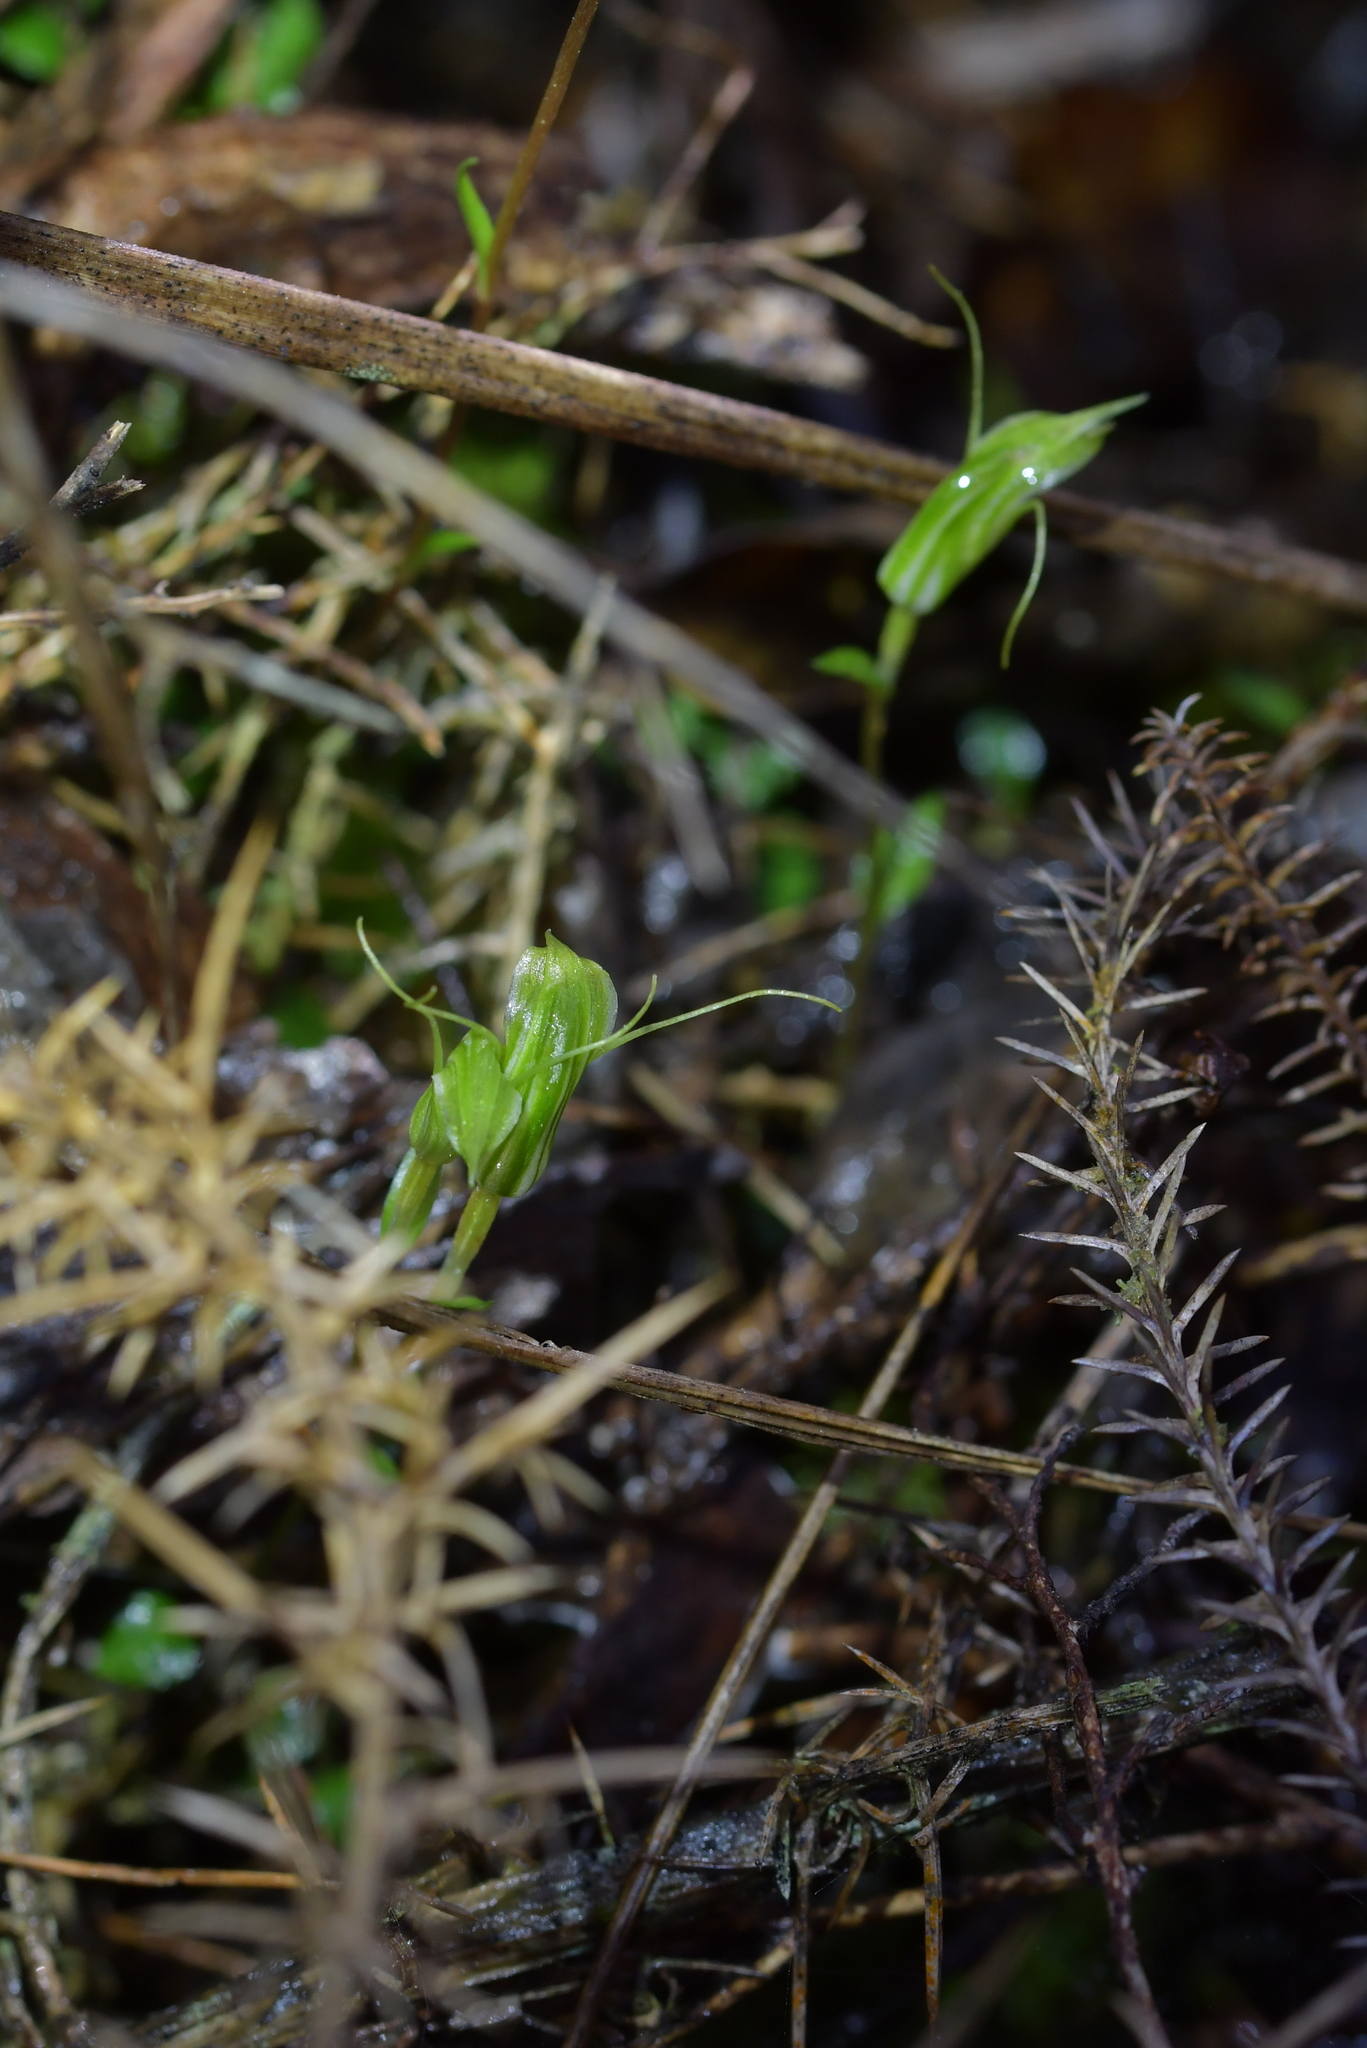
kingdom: Plantae
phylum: Tracheophyta
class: Liliopsida
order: Asparagales
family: Orchidaceae
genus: Pterostylis
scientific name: Pterostylis trullifolia
